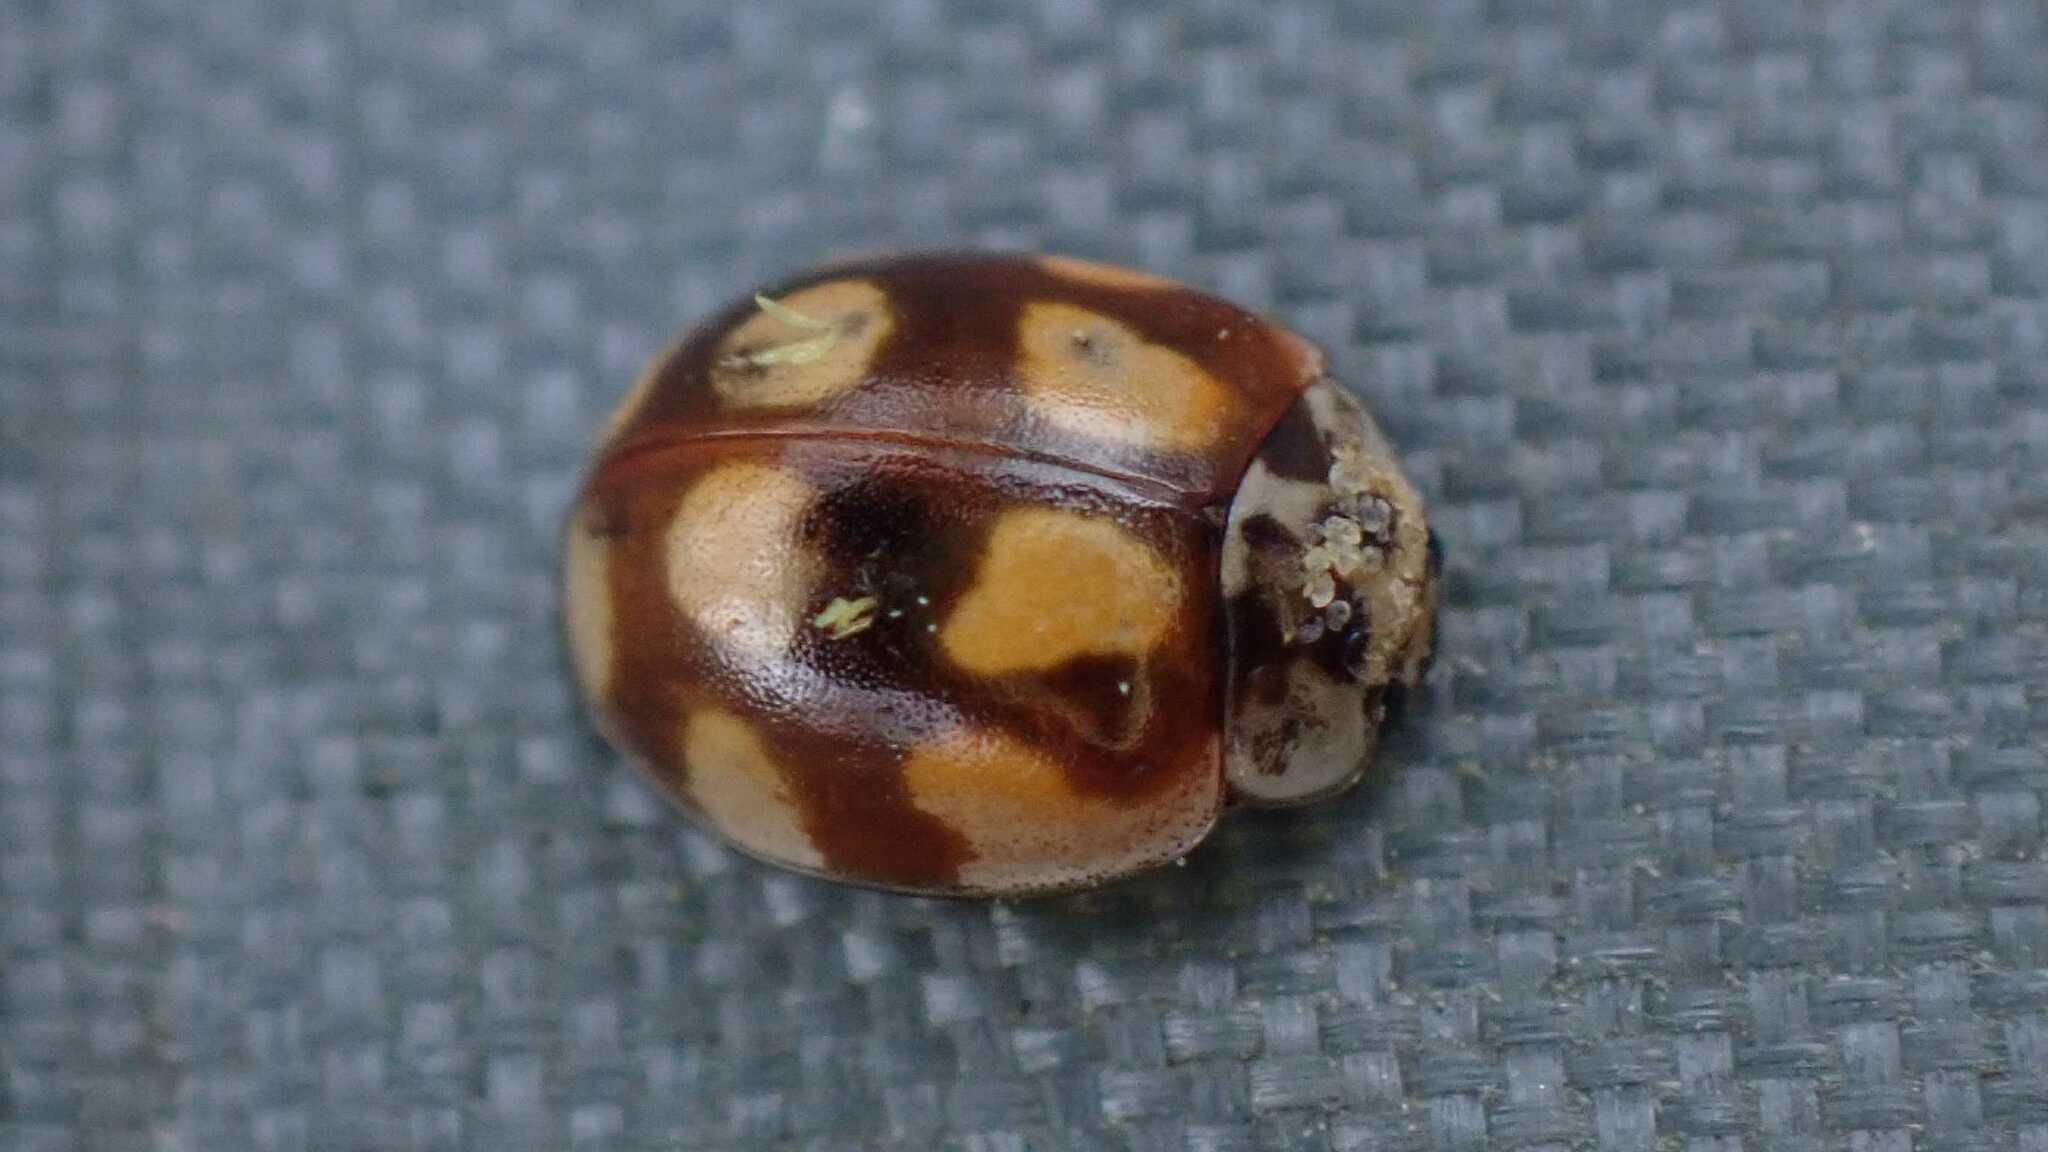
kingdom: Fungi
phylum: Ascomycota
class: Laboulbeniomycetes
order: Laboulbeniales
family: Laboulbeniaceae
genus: Hesperomyces
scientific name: Hesperomyces
